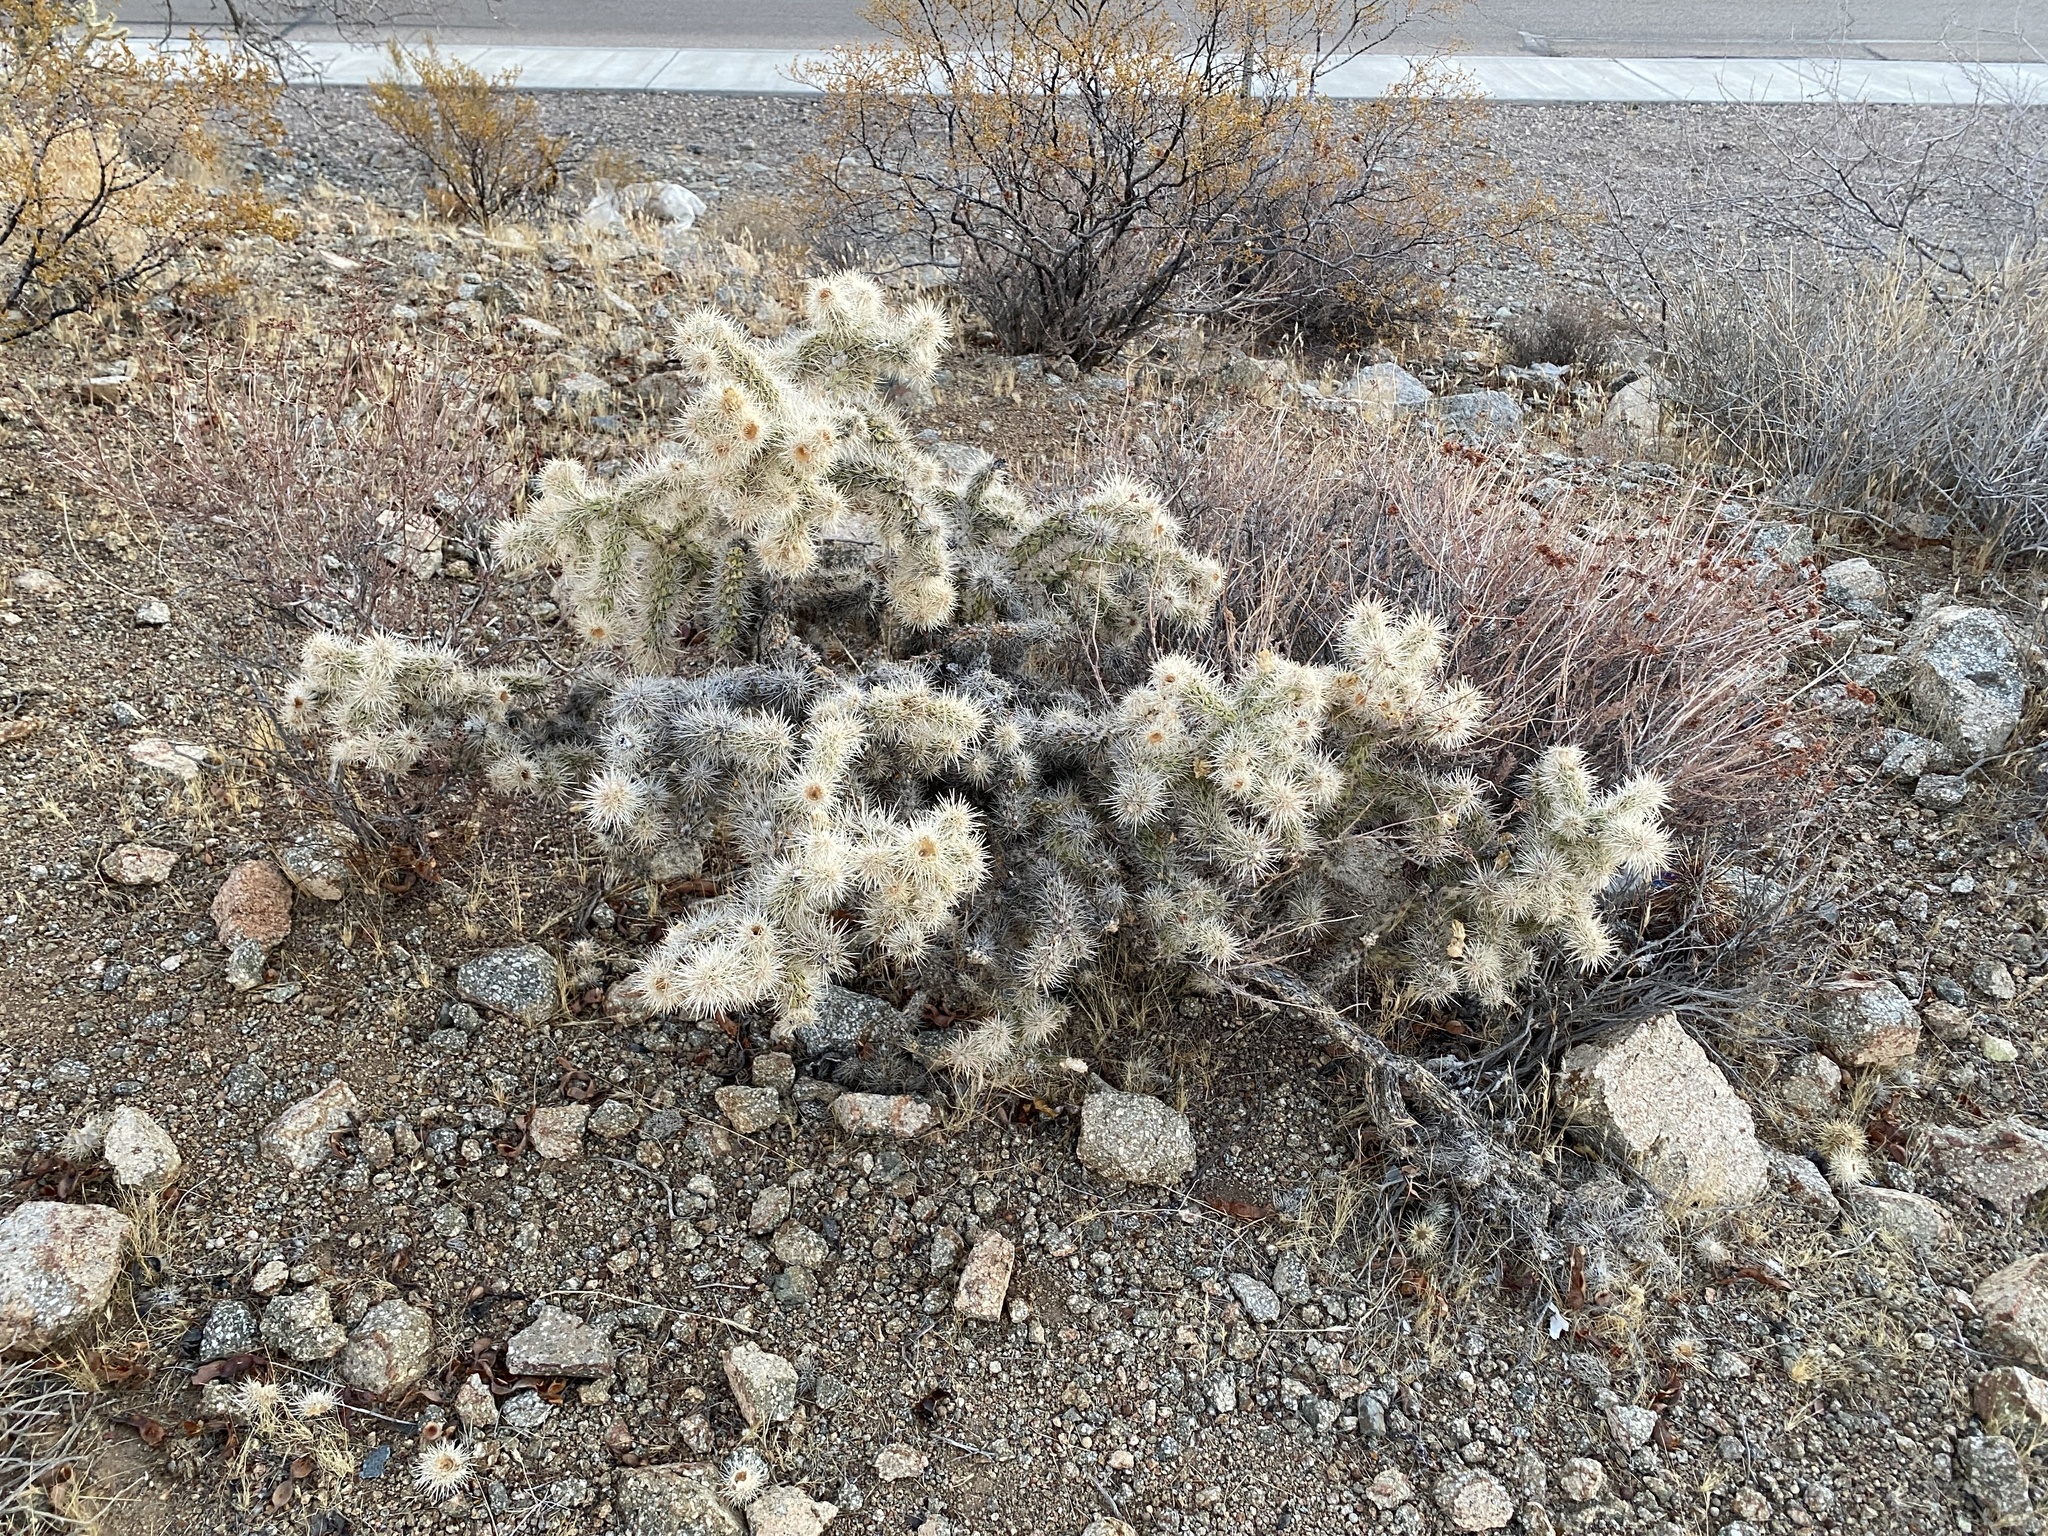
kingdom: Plantae
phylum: Tracheophyta
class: Magnoliopsida
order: Caryophyllales
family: Cactaceae
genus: Cylindropuntia
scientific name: Cylindropuntia echinocarpa
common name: Ground cholla
